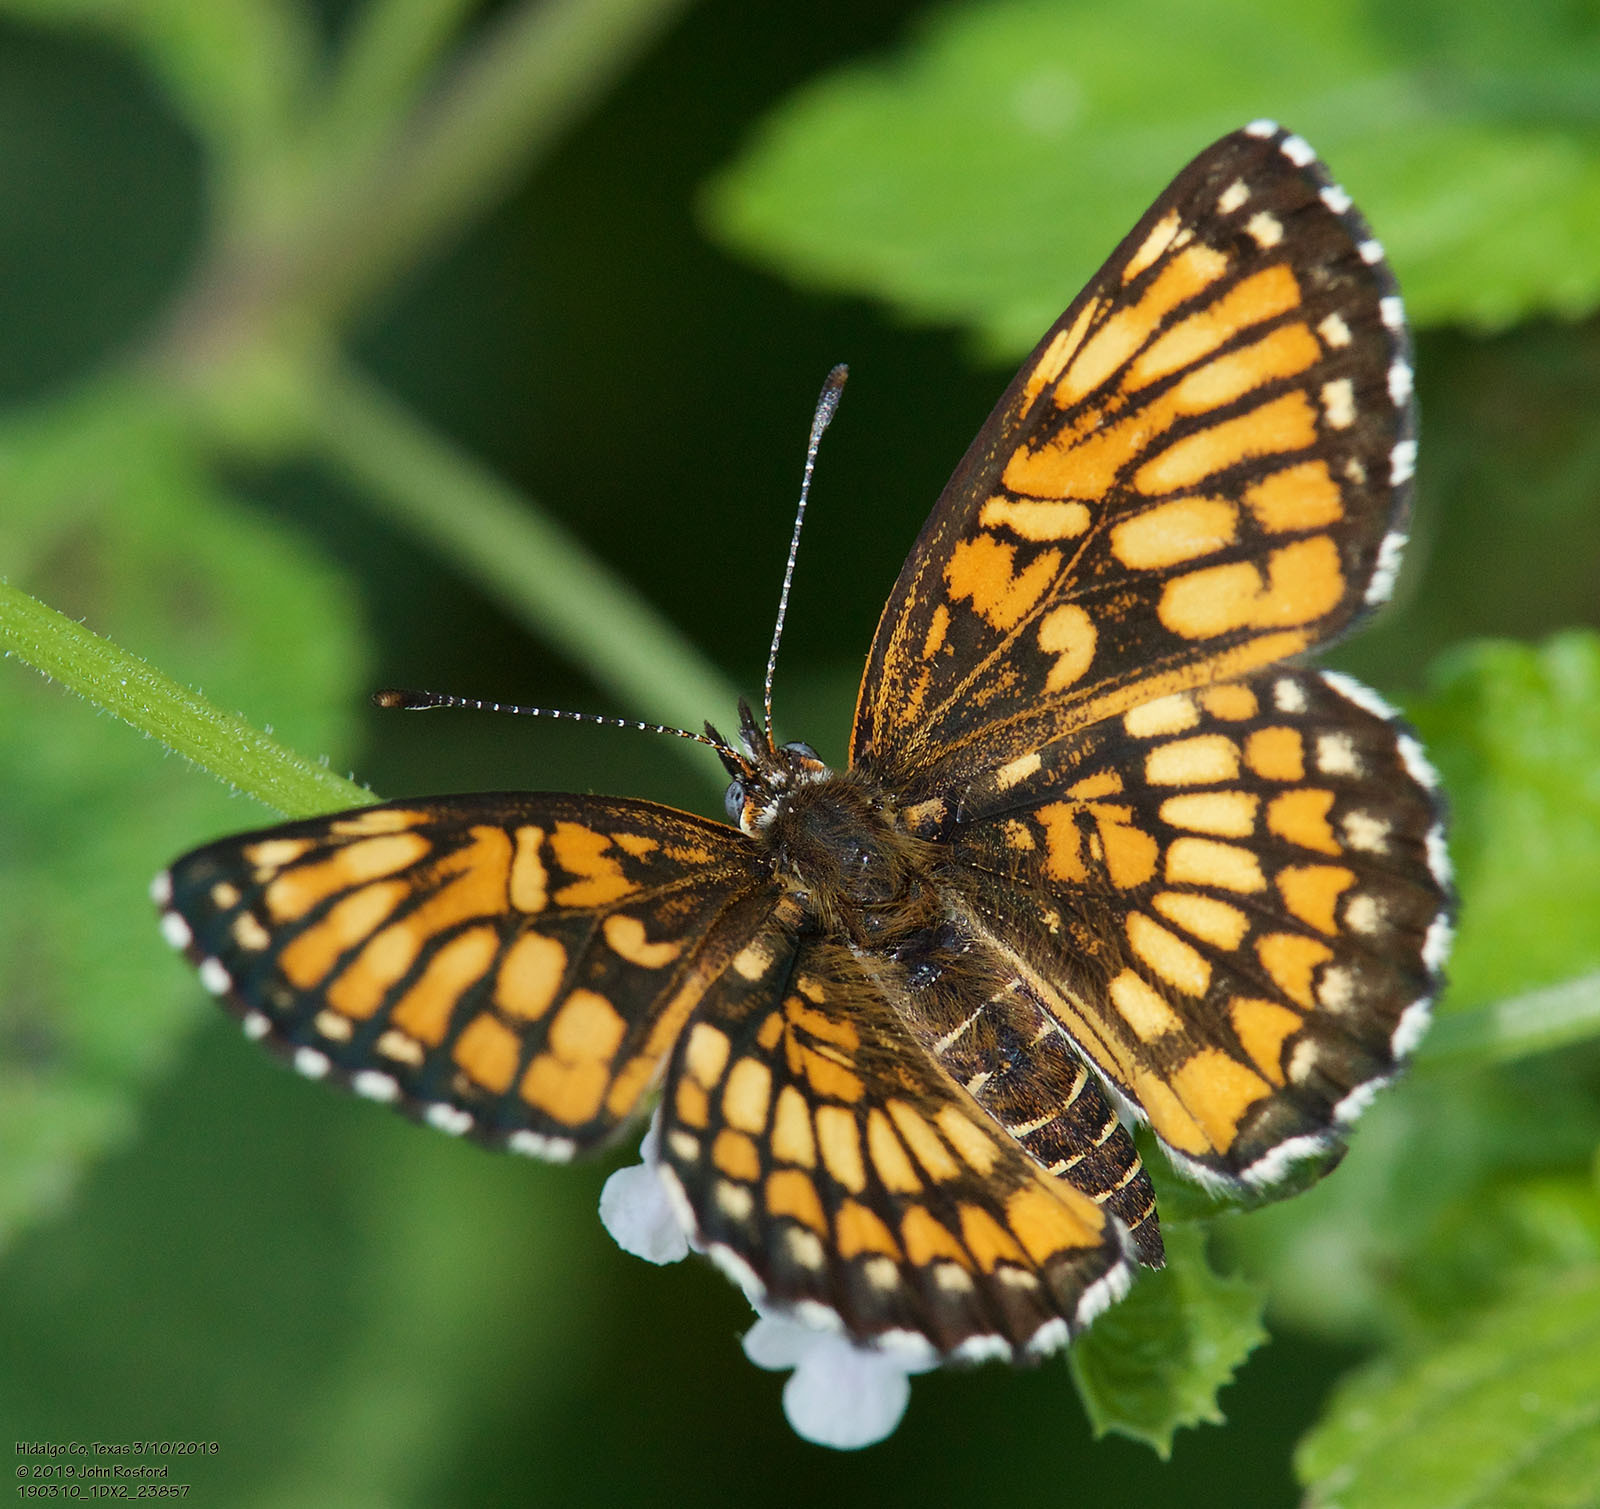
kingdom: Animalia
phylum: Arthropoda
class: Insecta
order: Lepidoptera
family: Nymphalidae
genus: Thessalia
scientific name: Thessalia theona
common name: Nymphalid moth
